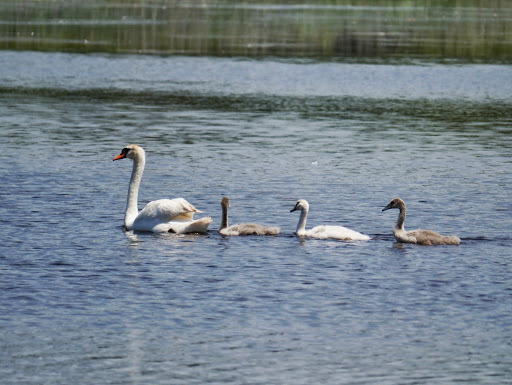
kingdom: Animalia
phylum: Chordata
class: Aves
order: Anseriformes
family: Anatidae
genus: Cygnus
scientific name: Cygnus olor
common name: Mute swan
